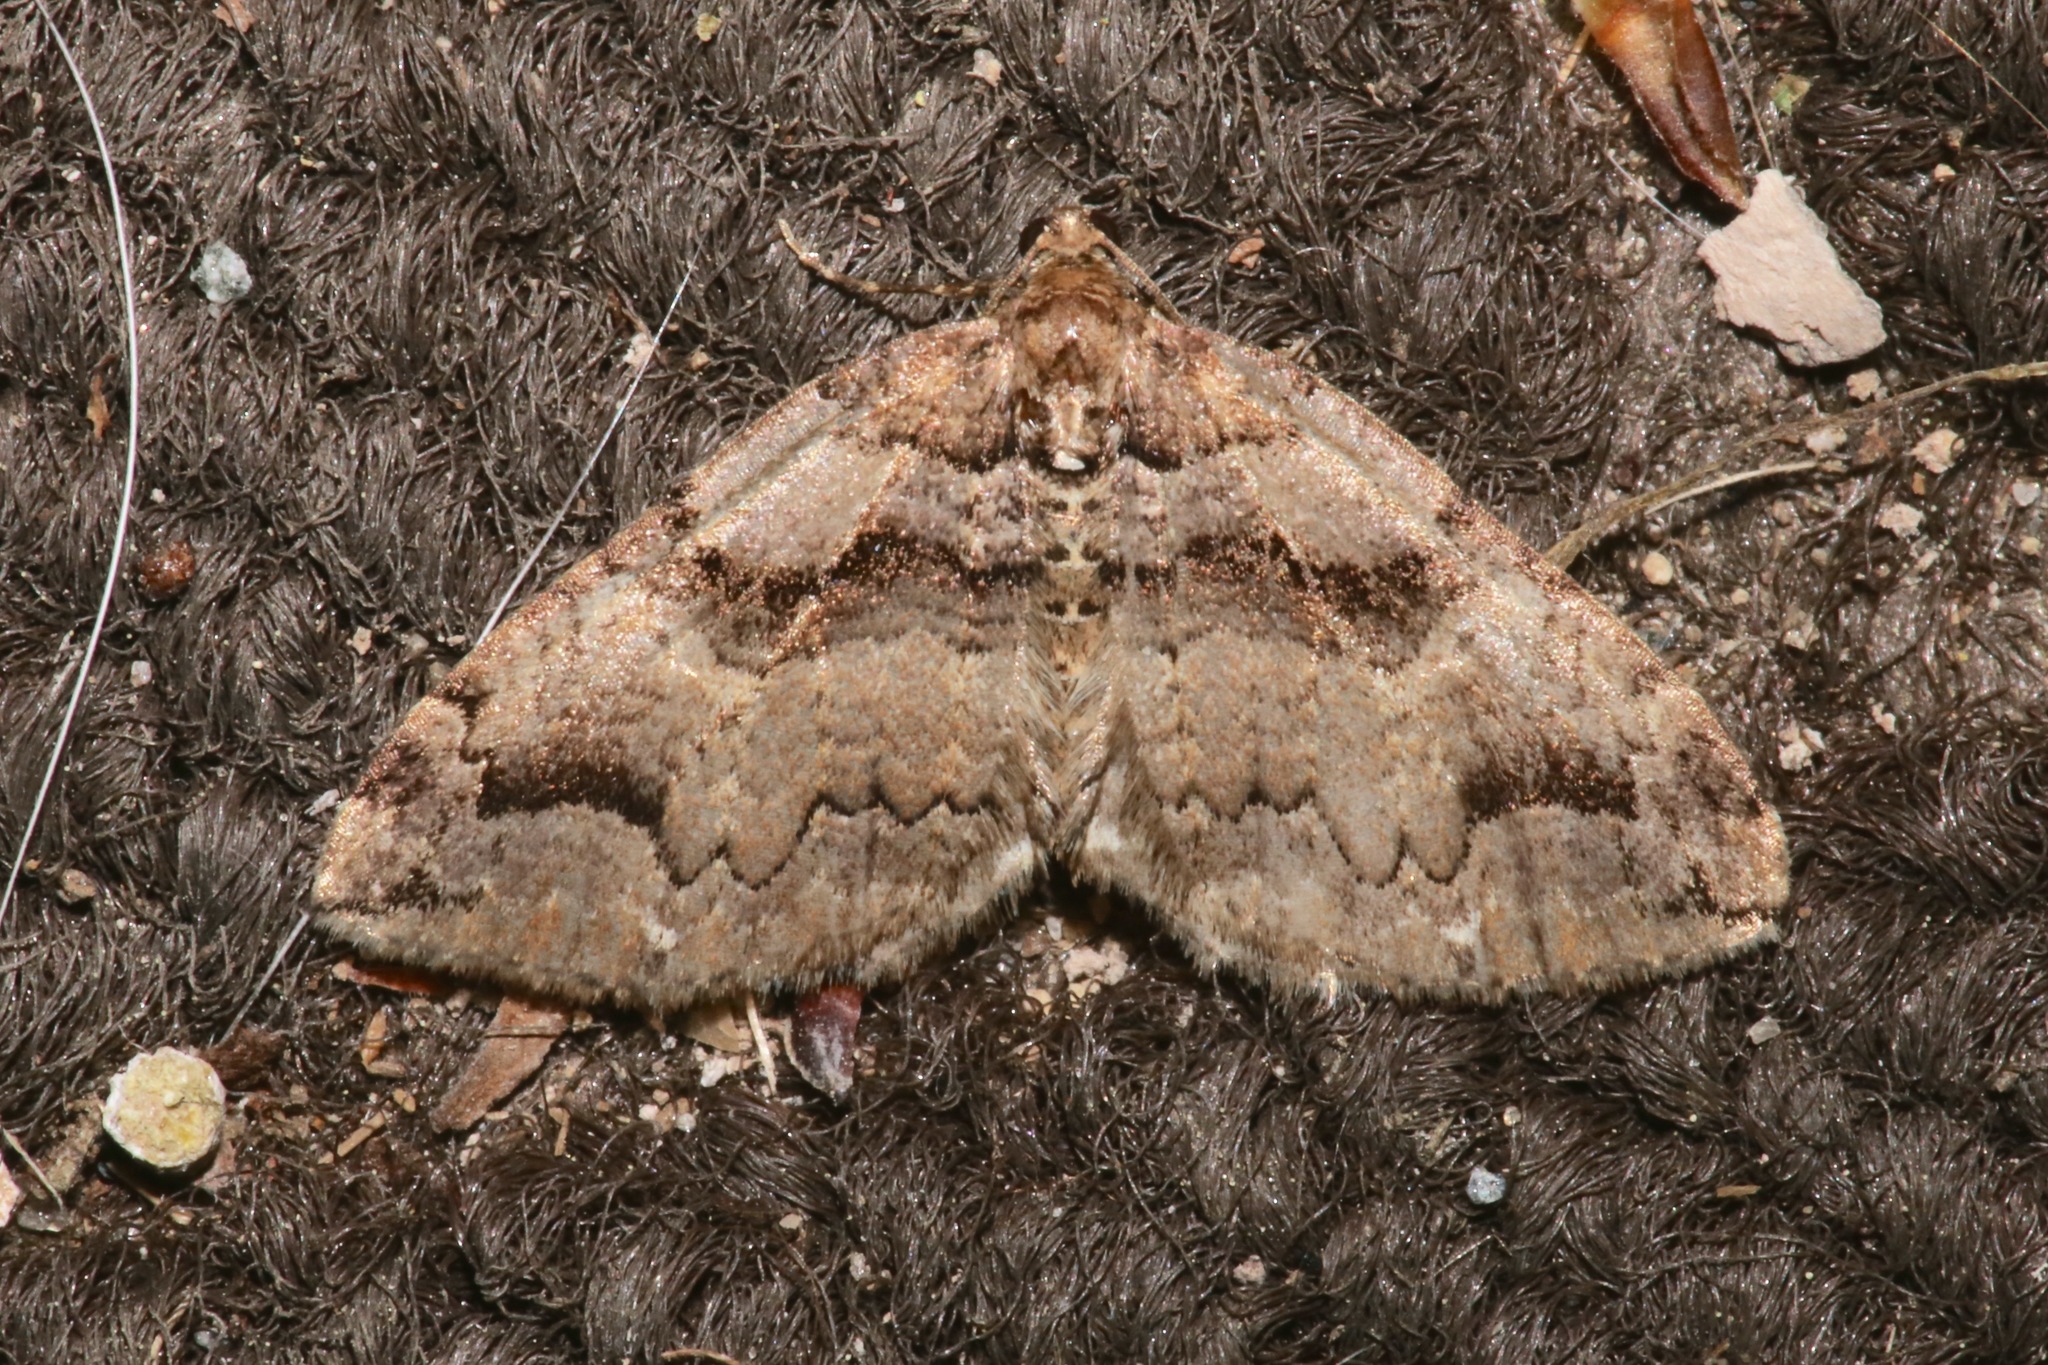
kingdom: Animalia
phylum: Arthropoda
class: Insecta
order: Lepidoptera
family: Geometridae
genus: Anticlea
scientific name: Anticlea vasiliata
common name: Variable carpet
